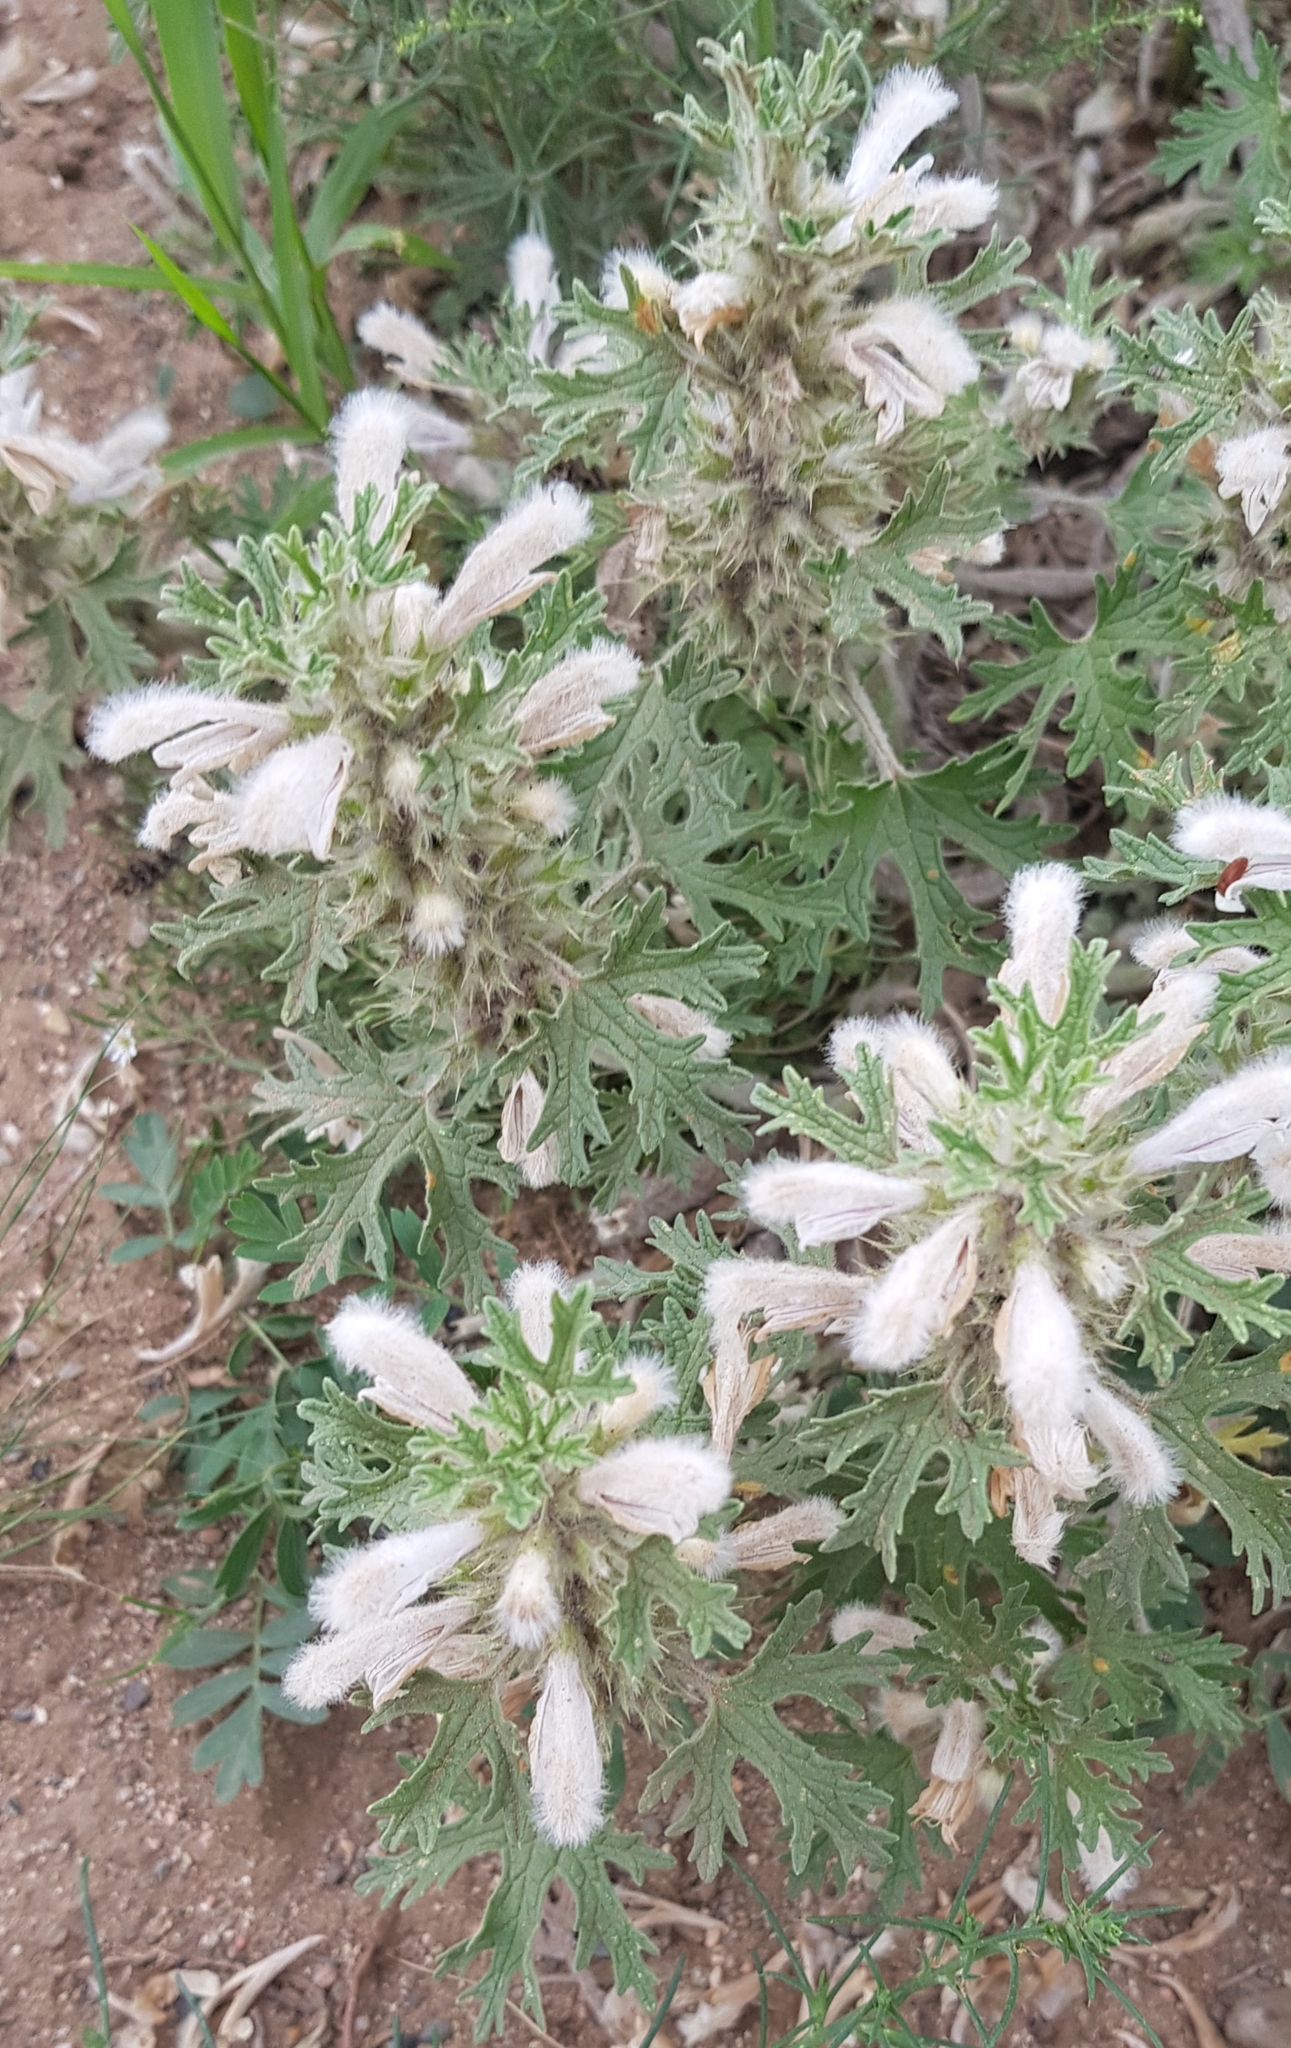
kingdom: Plantae
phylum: Tracheophyta
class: Magnoliopsida
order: Lamiales
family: Lamiaceae
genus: Panzerina
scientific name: Panzerina lanata
